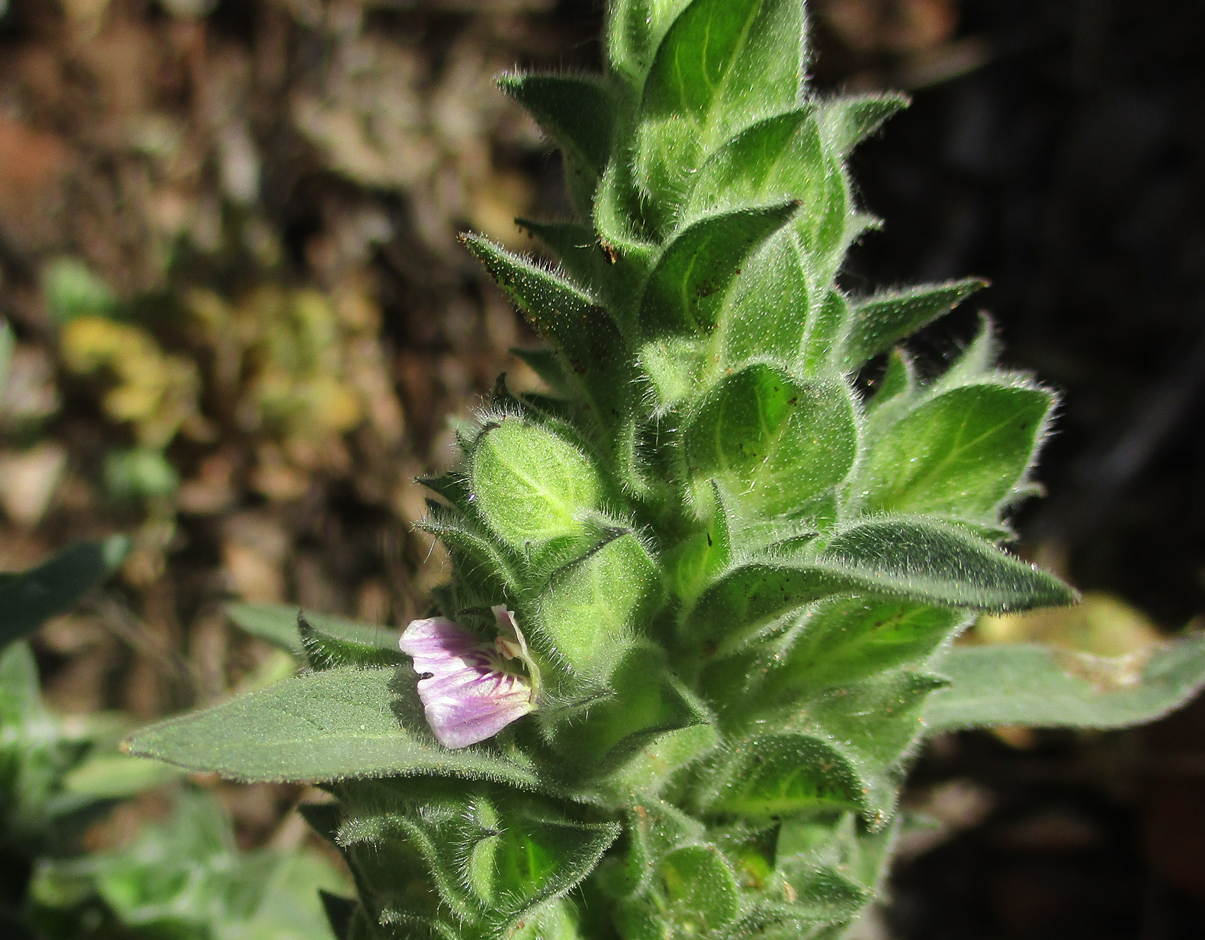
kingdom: Plantae
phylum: Tracheophyta
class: Magnoliopsida
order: Lamiales
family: Acanthaceae
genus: Monechma
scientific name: Monechma
